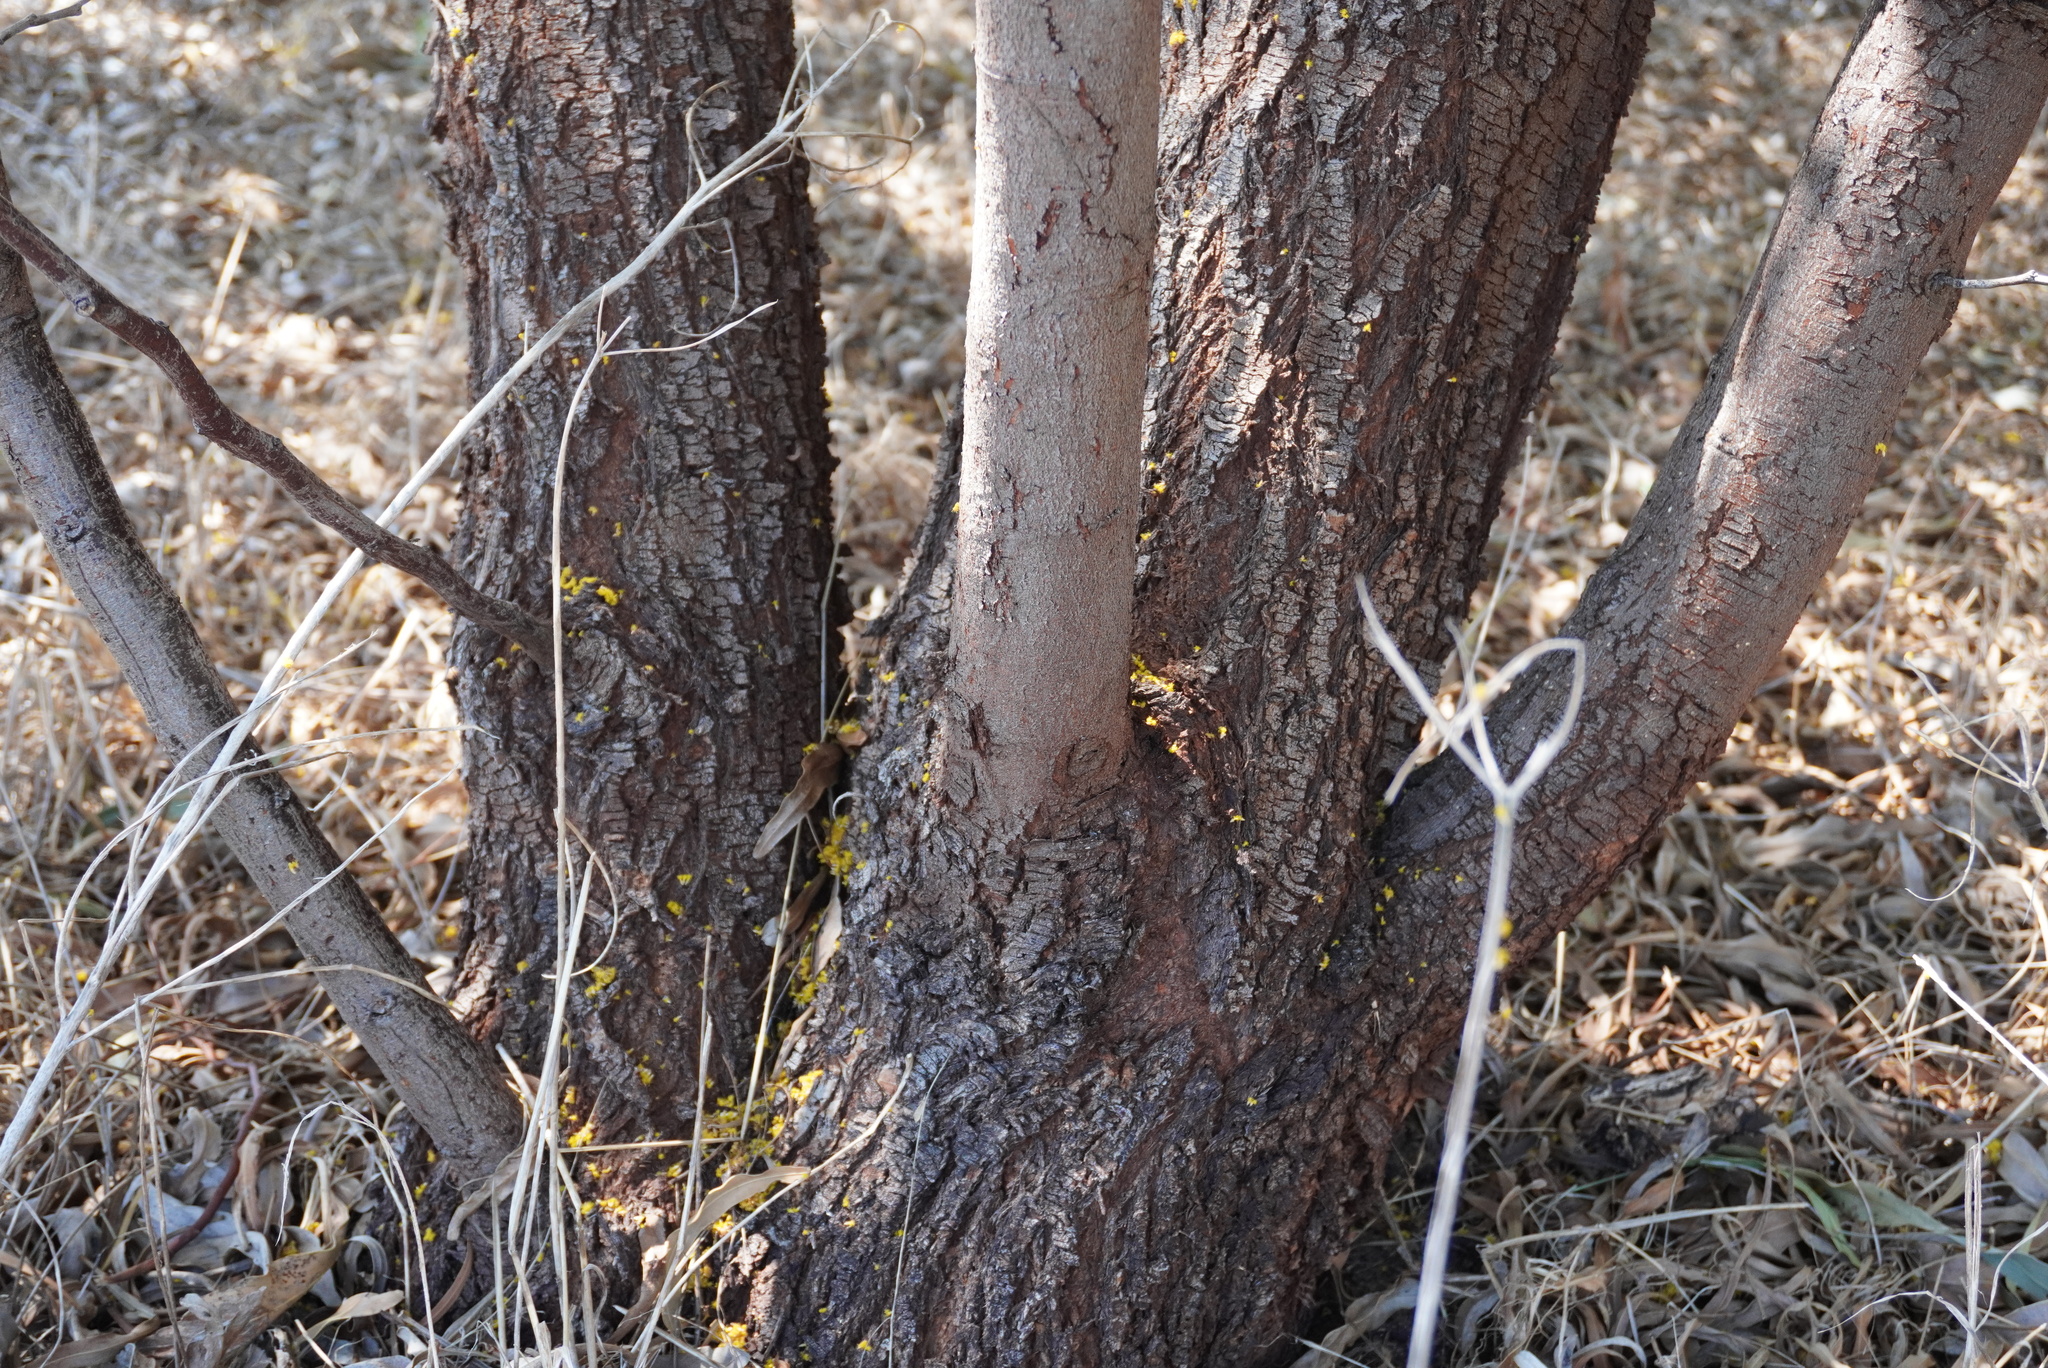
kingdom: Plantae
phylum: Tracheophyta
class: Magnoliopsida
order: Fabales
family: Fabaceae
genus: Acacia
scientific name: Acacia saligna
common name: Orange wattle
